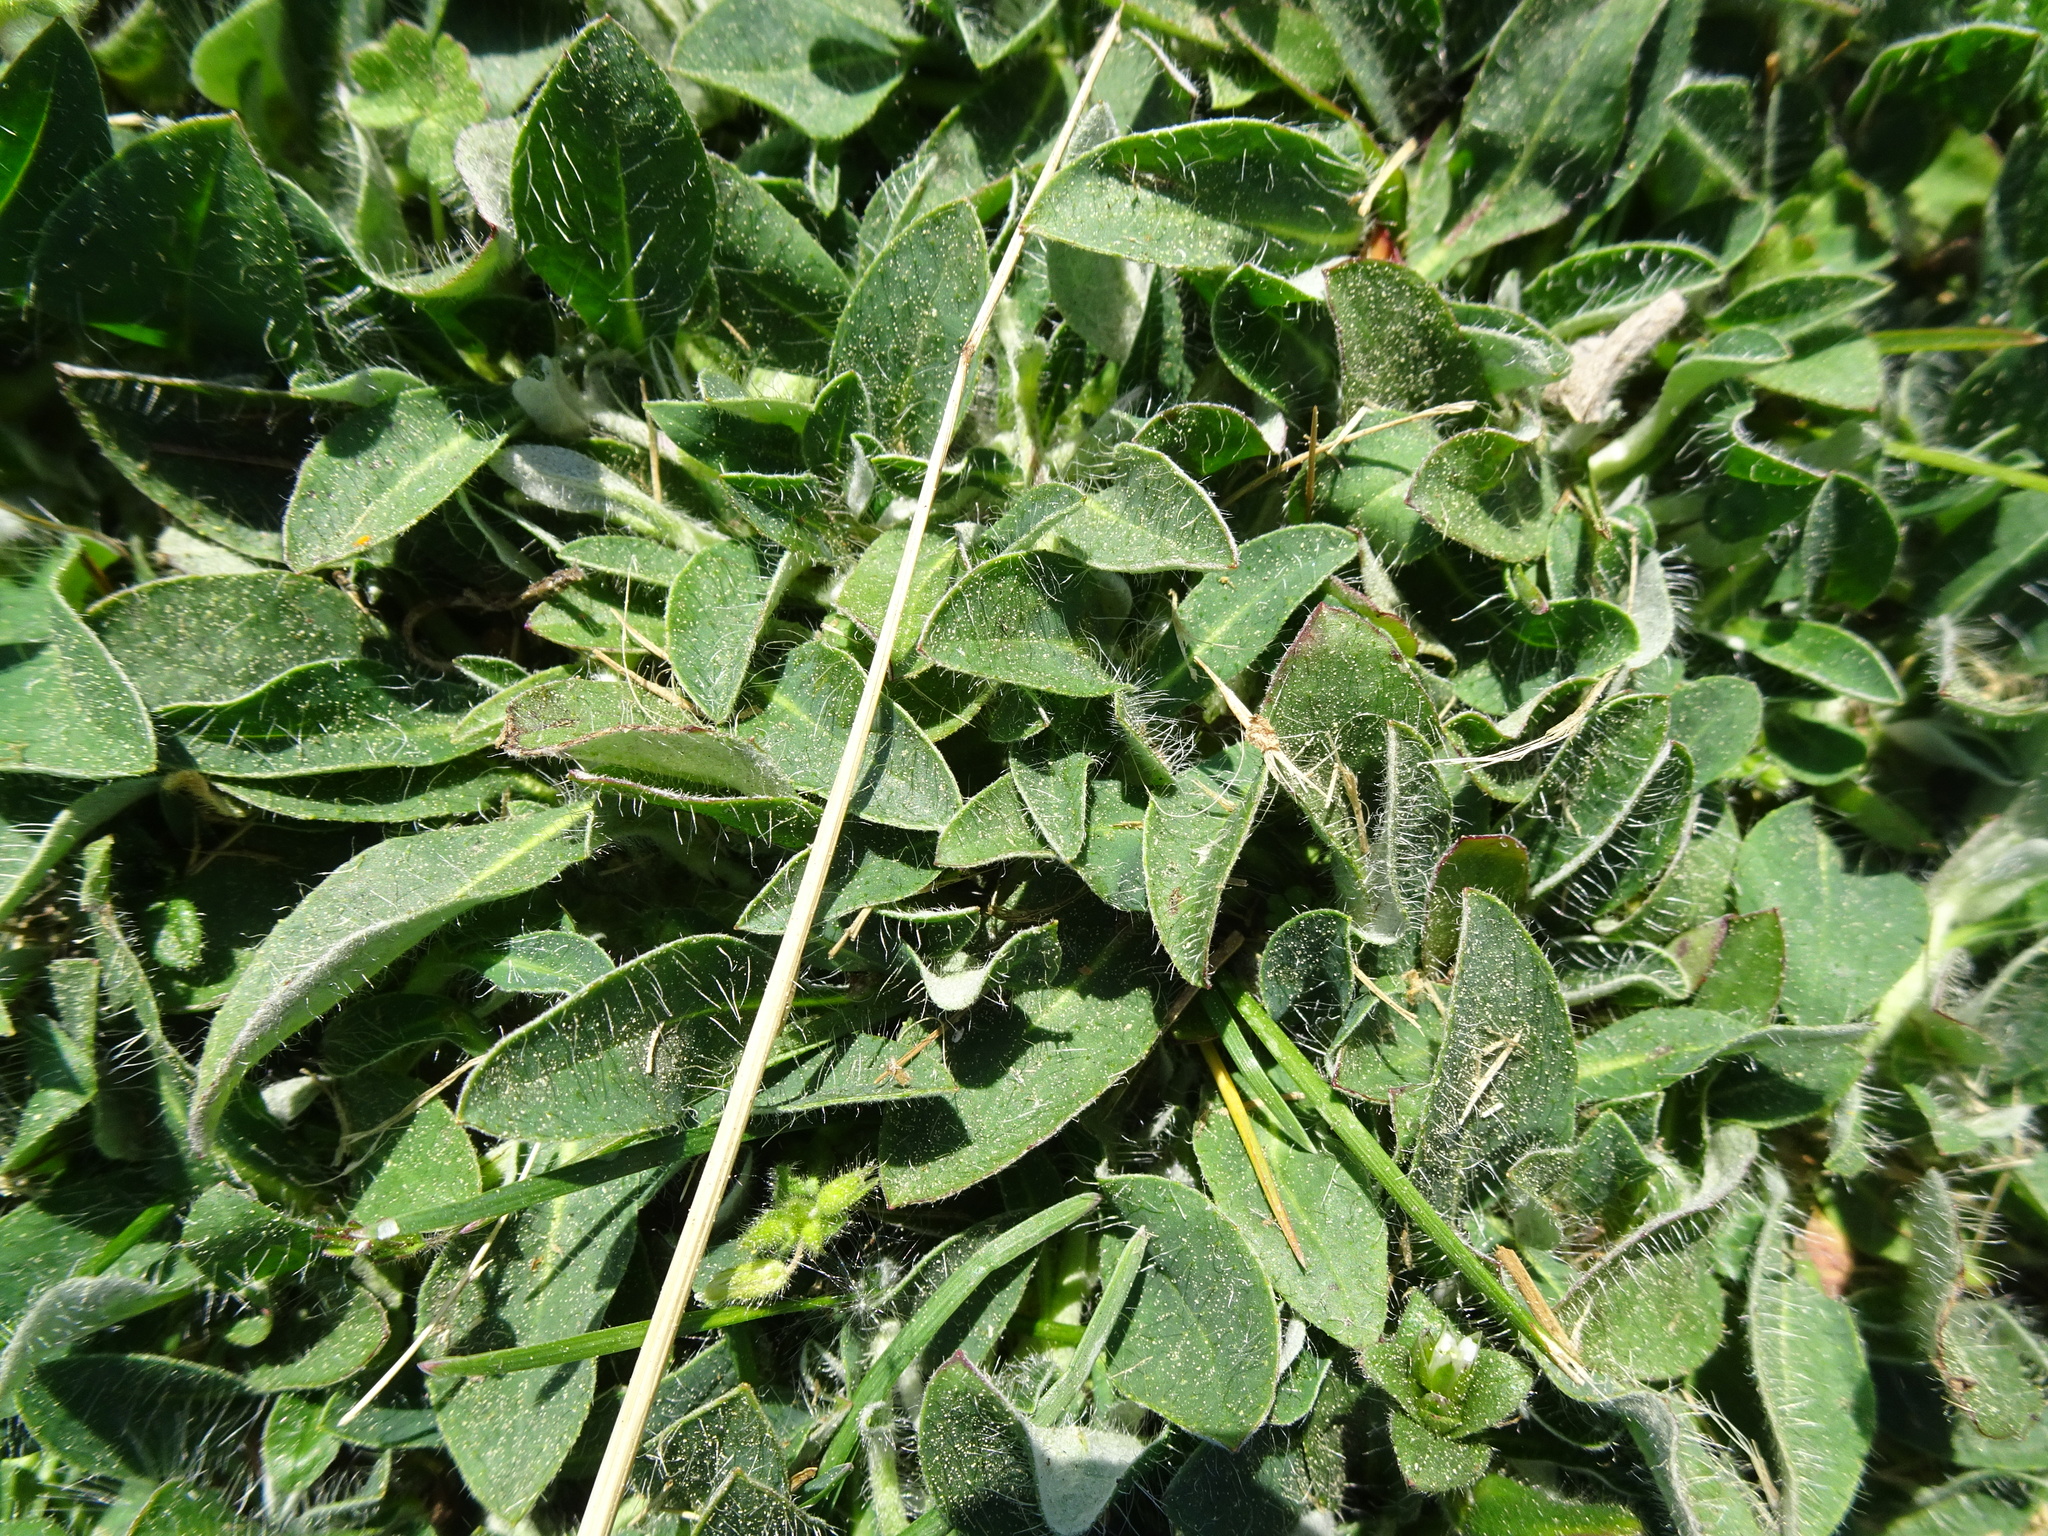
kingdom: Plantae
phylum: Tracheophyta
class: Magnoliopsida
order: Asterales
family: Asteraceae
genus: Pilosella
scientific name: Pilosella officinarum
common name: Mouse-ear hawkweed
